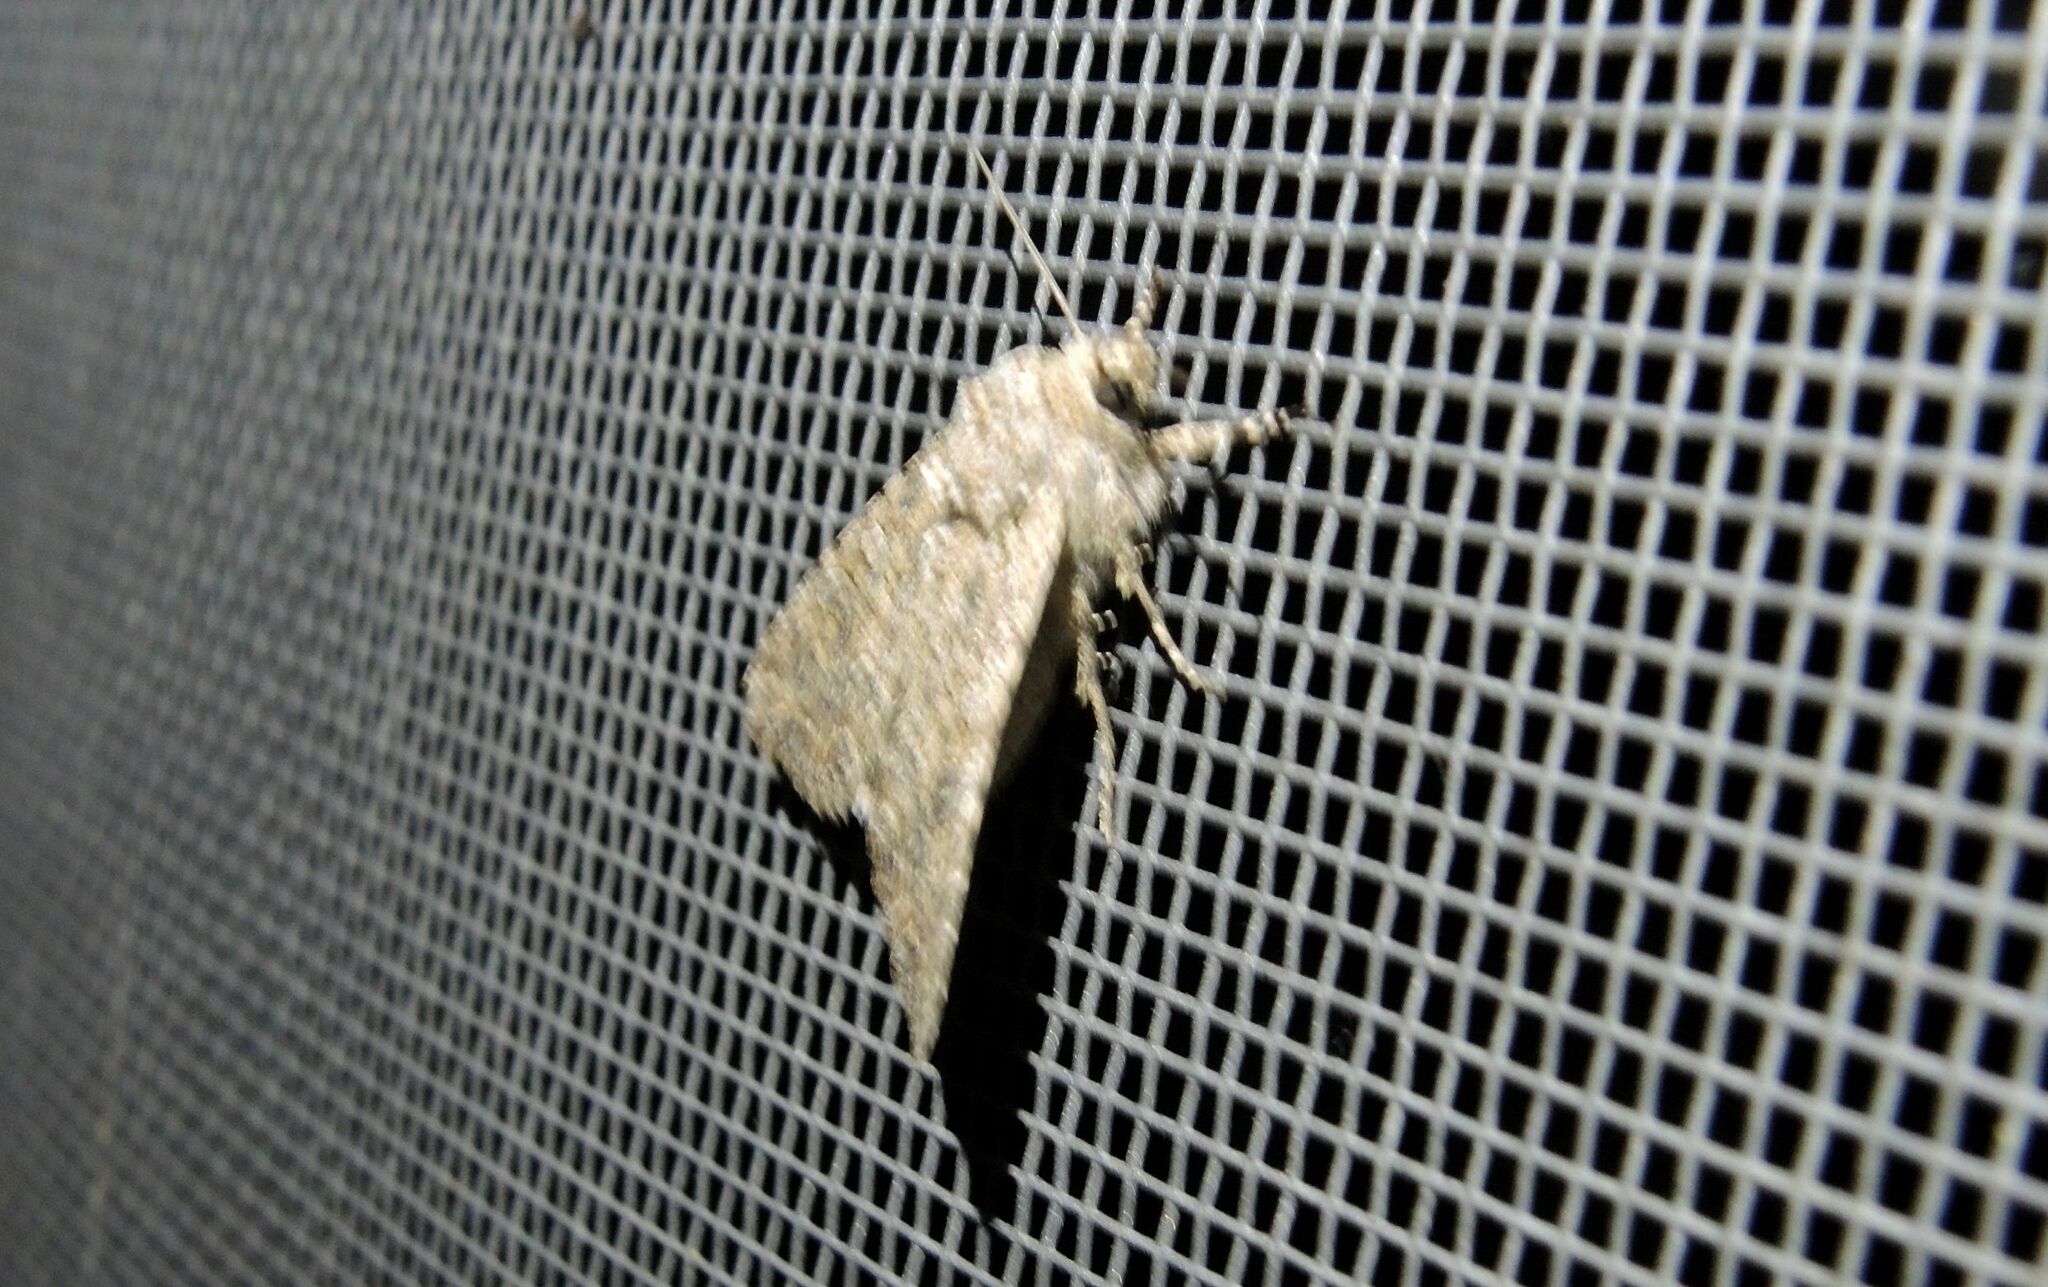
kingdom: Animalia
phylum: Arthropoda
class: Insecta
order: Lepidoptera
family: Noctuidae
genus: Anarta
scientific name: Anarta trifolii
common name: Clover cutworm moth
